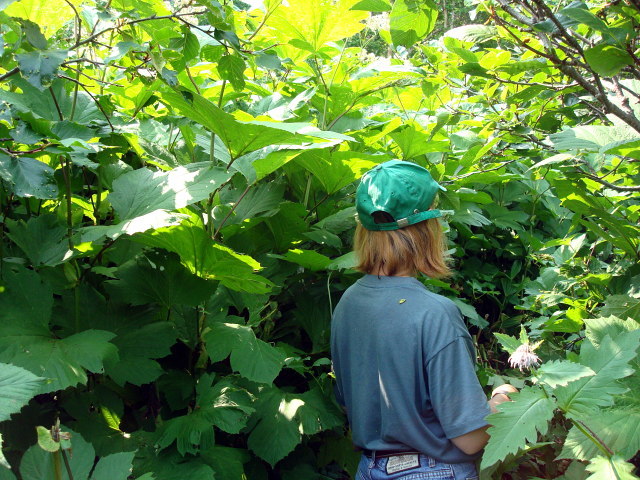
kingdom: Plantae
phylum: Tracheophyta
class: Magnoliopsida
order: Rosales
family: Rosaceae
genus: Filipendula
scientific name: Filipendula camtschatica
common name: Giant meadowsweet
